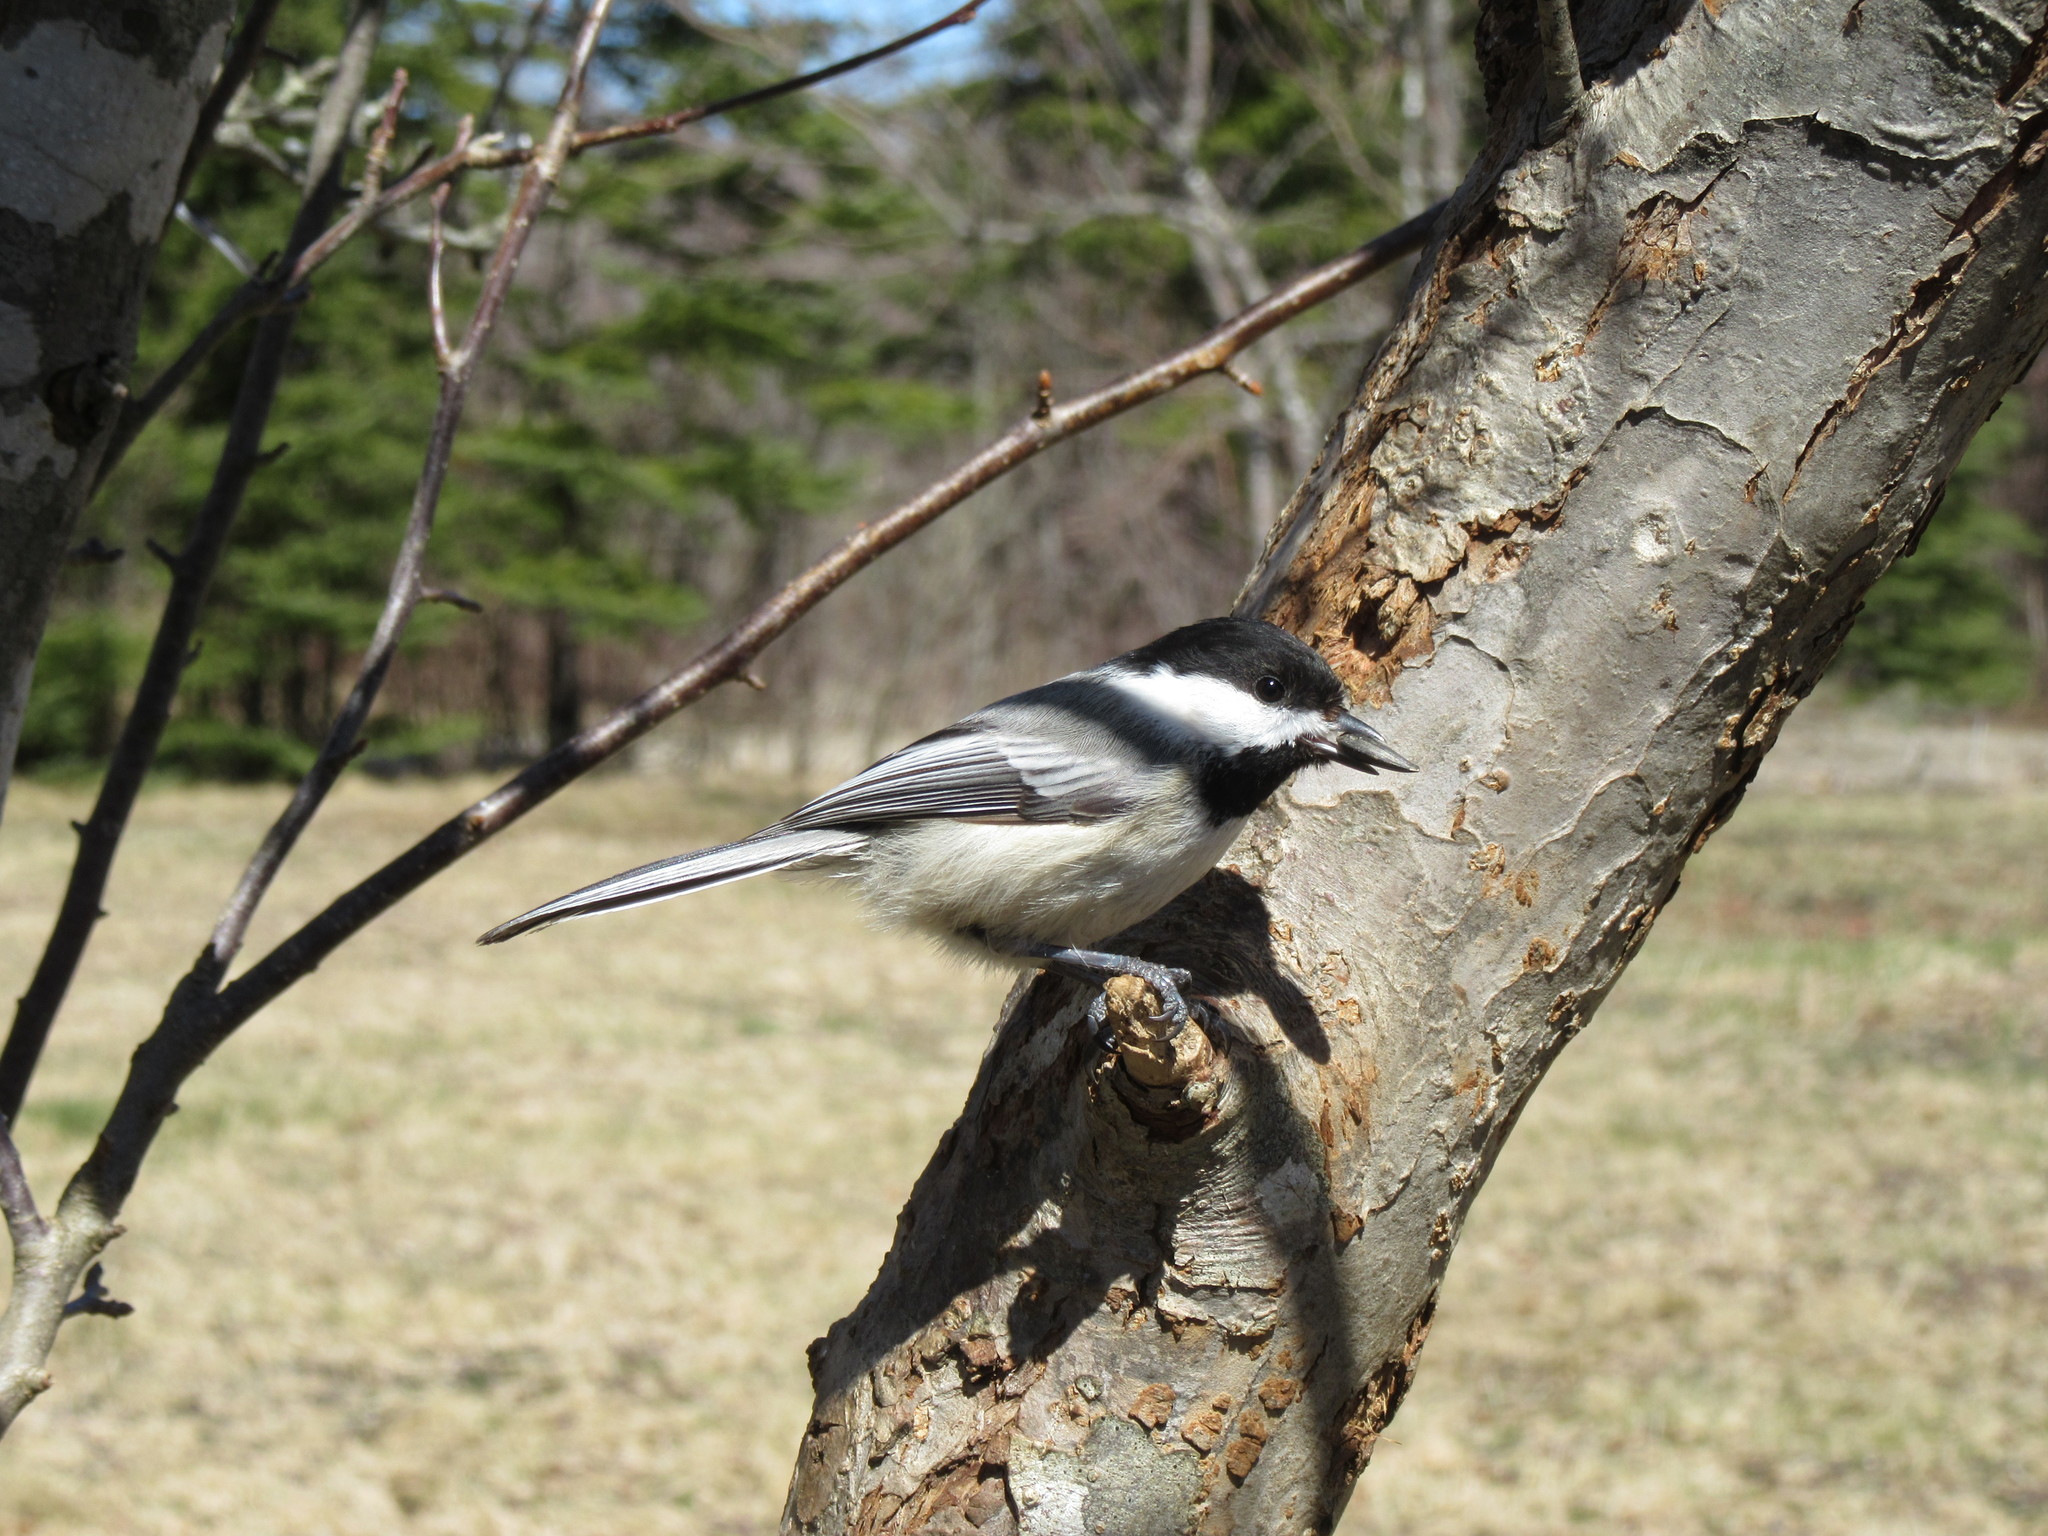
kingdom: Animalia
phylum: Chordata
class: Aves
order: Passeriformes
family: Paridae
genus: Poecile
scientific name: Poecile atricapillus
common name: Black-capped chickadee
